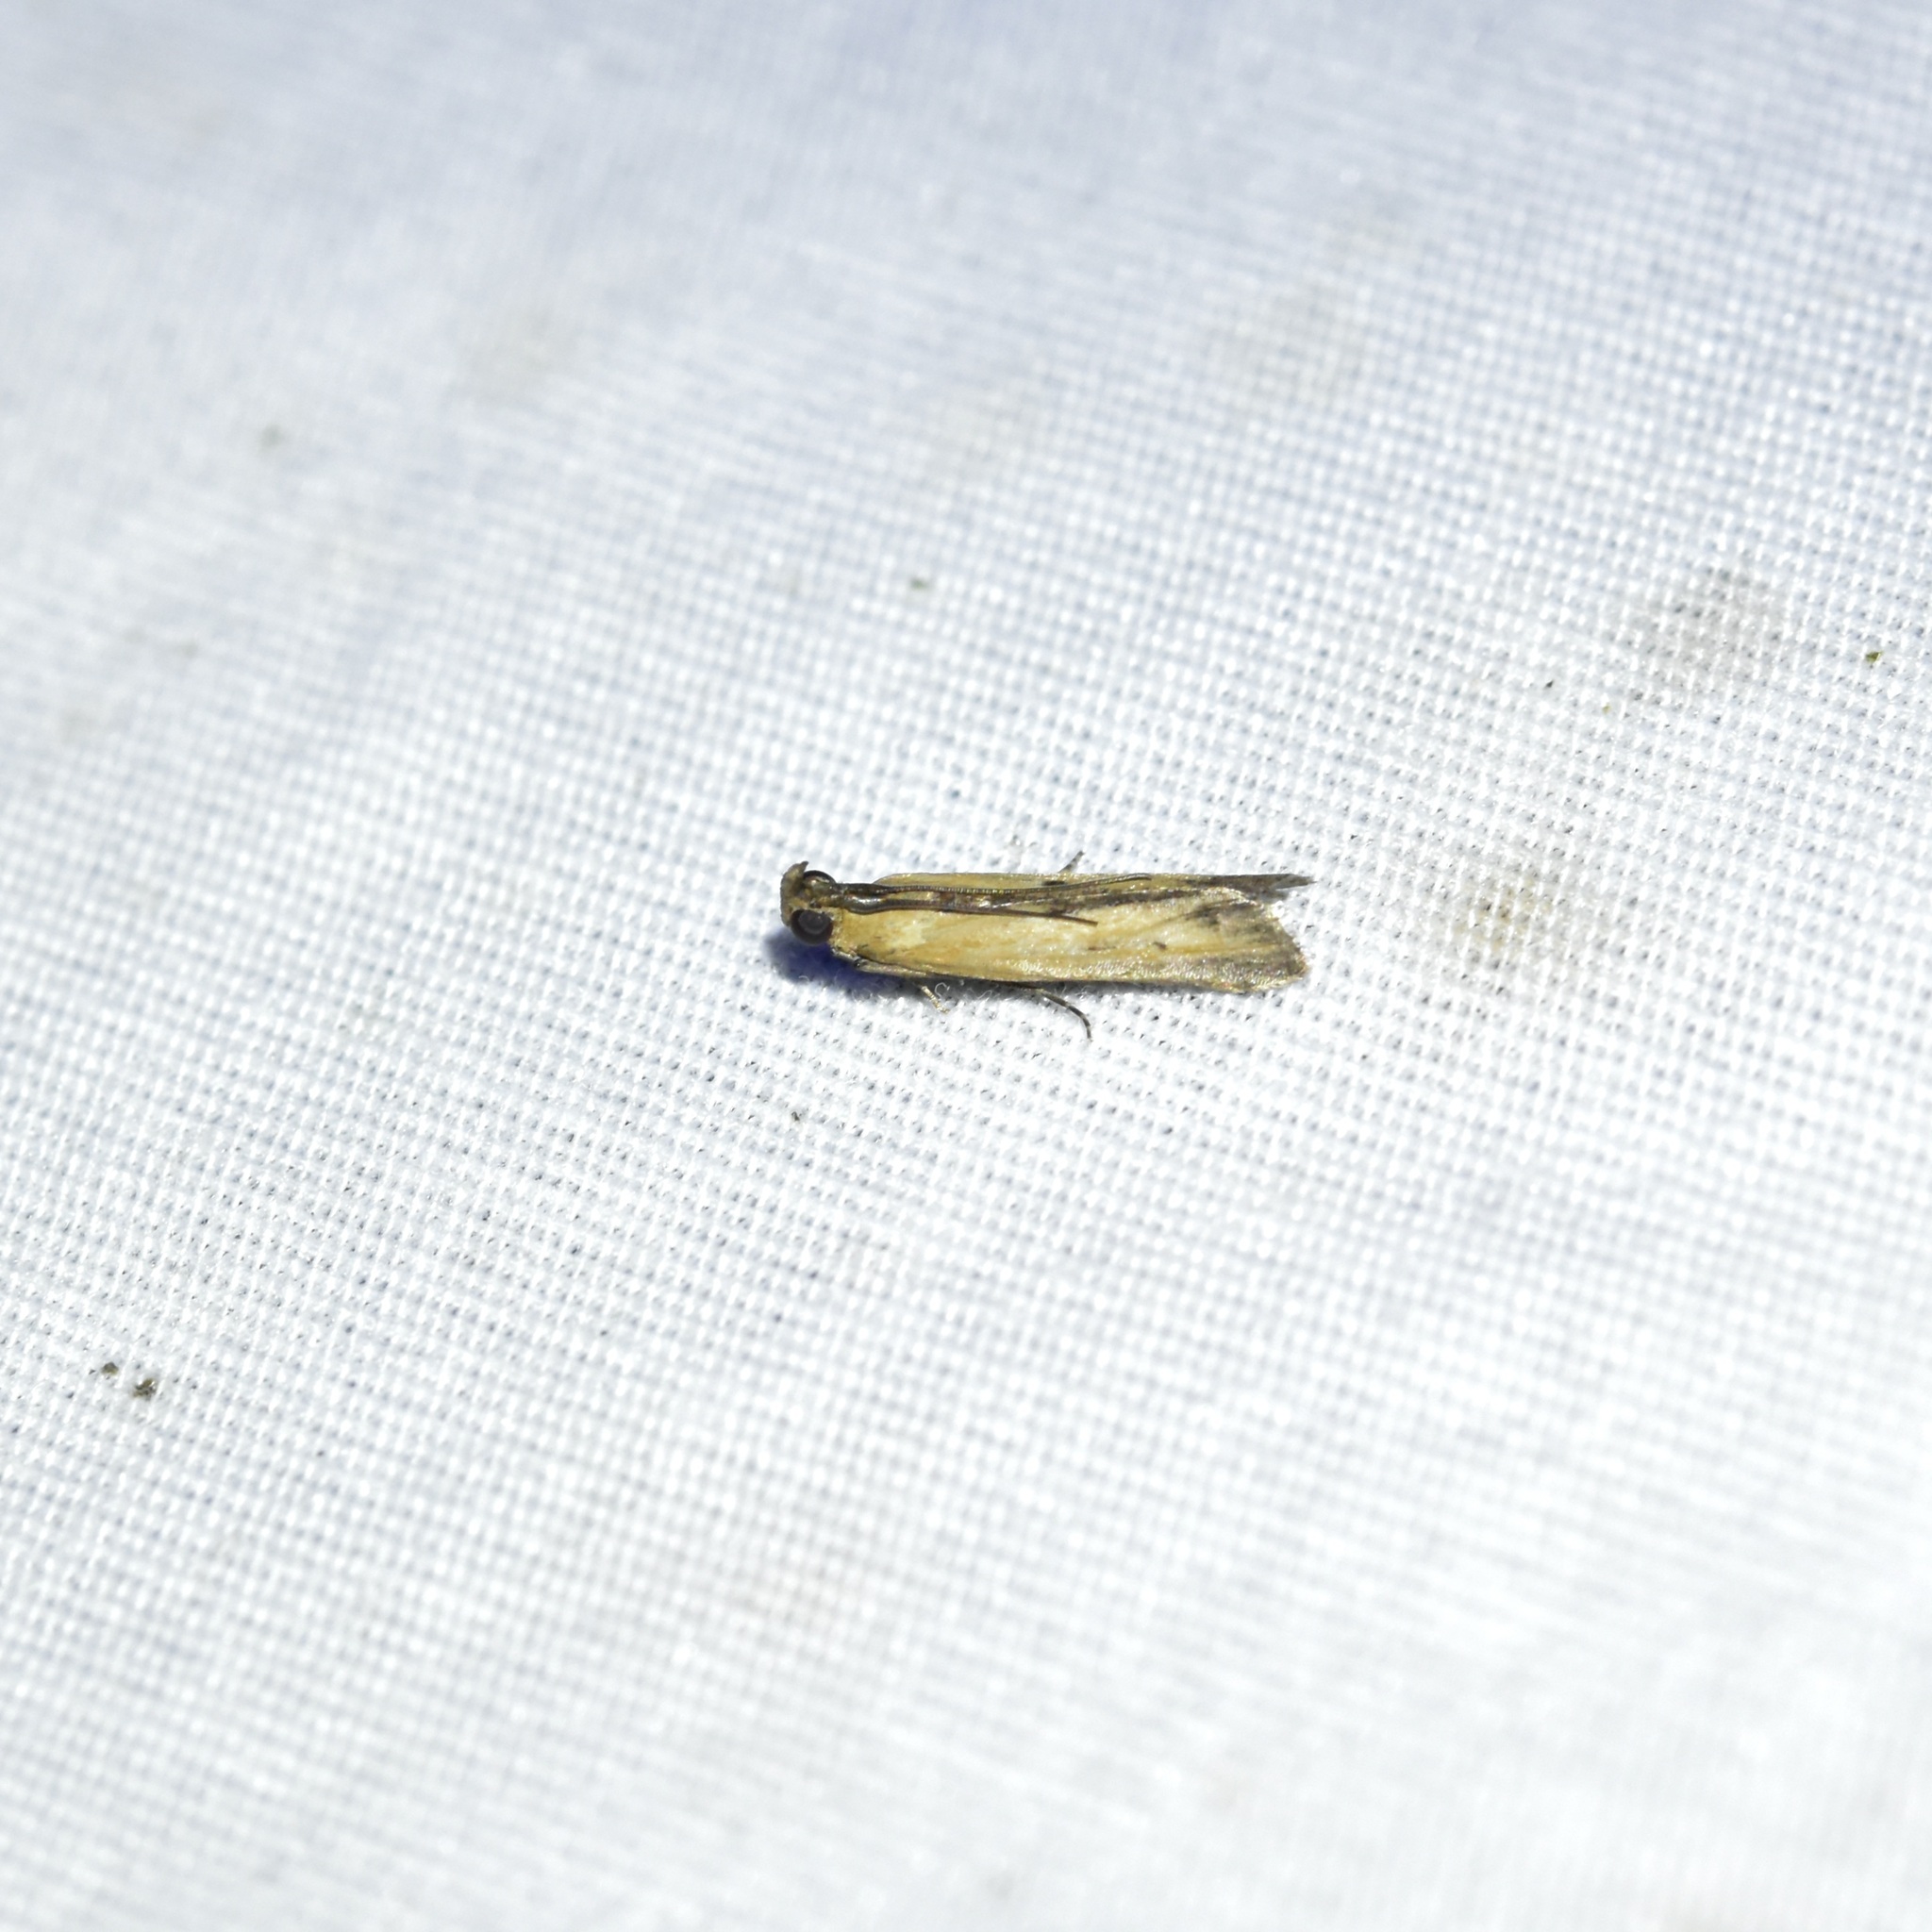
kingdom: Animalia
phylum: Arthropoda
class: Insecta
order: Lepidoptera
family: Pyralidae
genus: Elasmopalpus
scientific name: Elasmopalpus lignosella
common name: Lesser cornstalk borer
